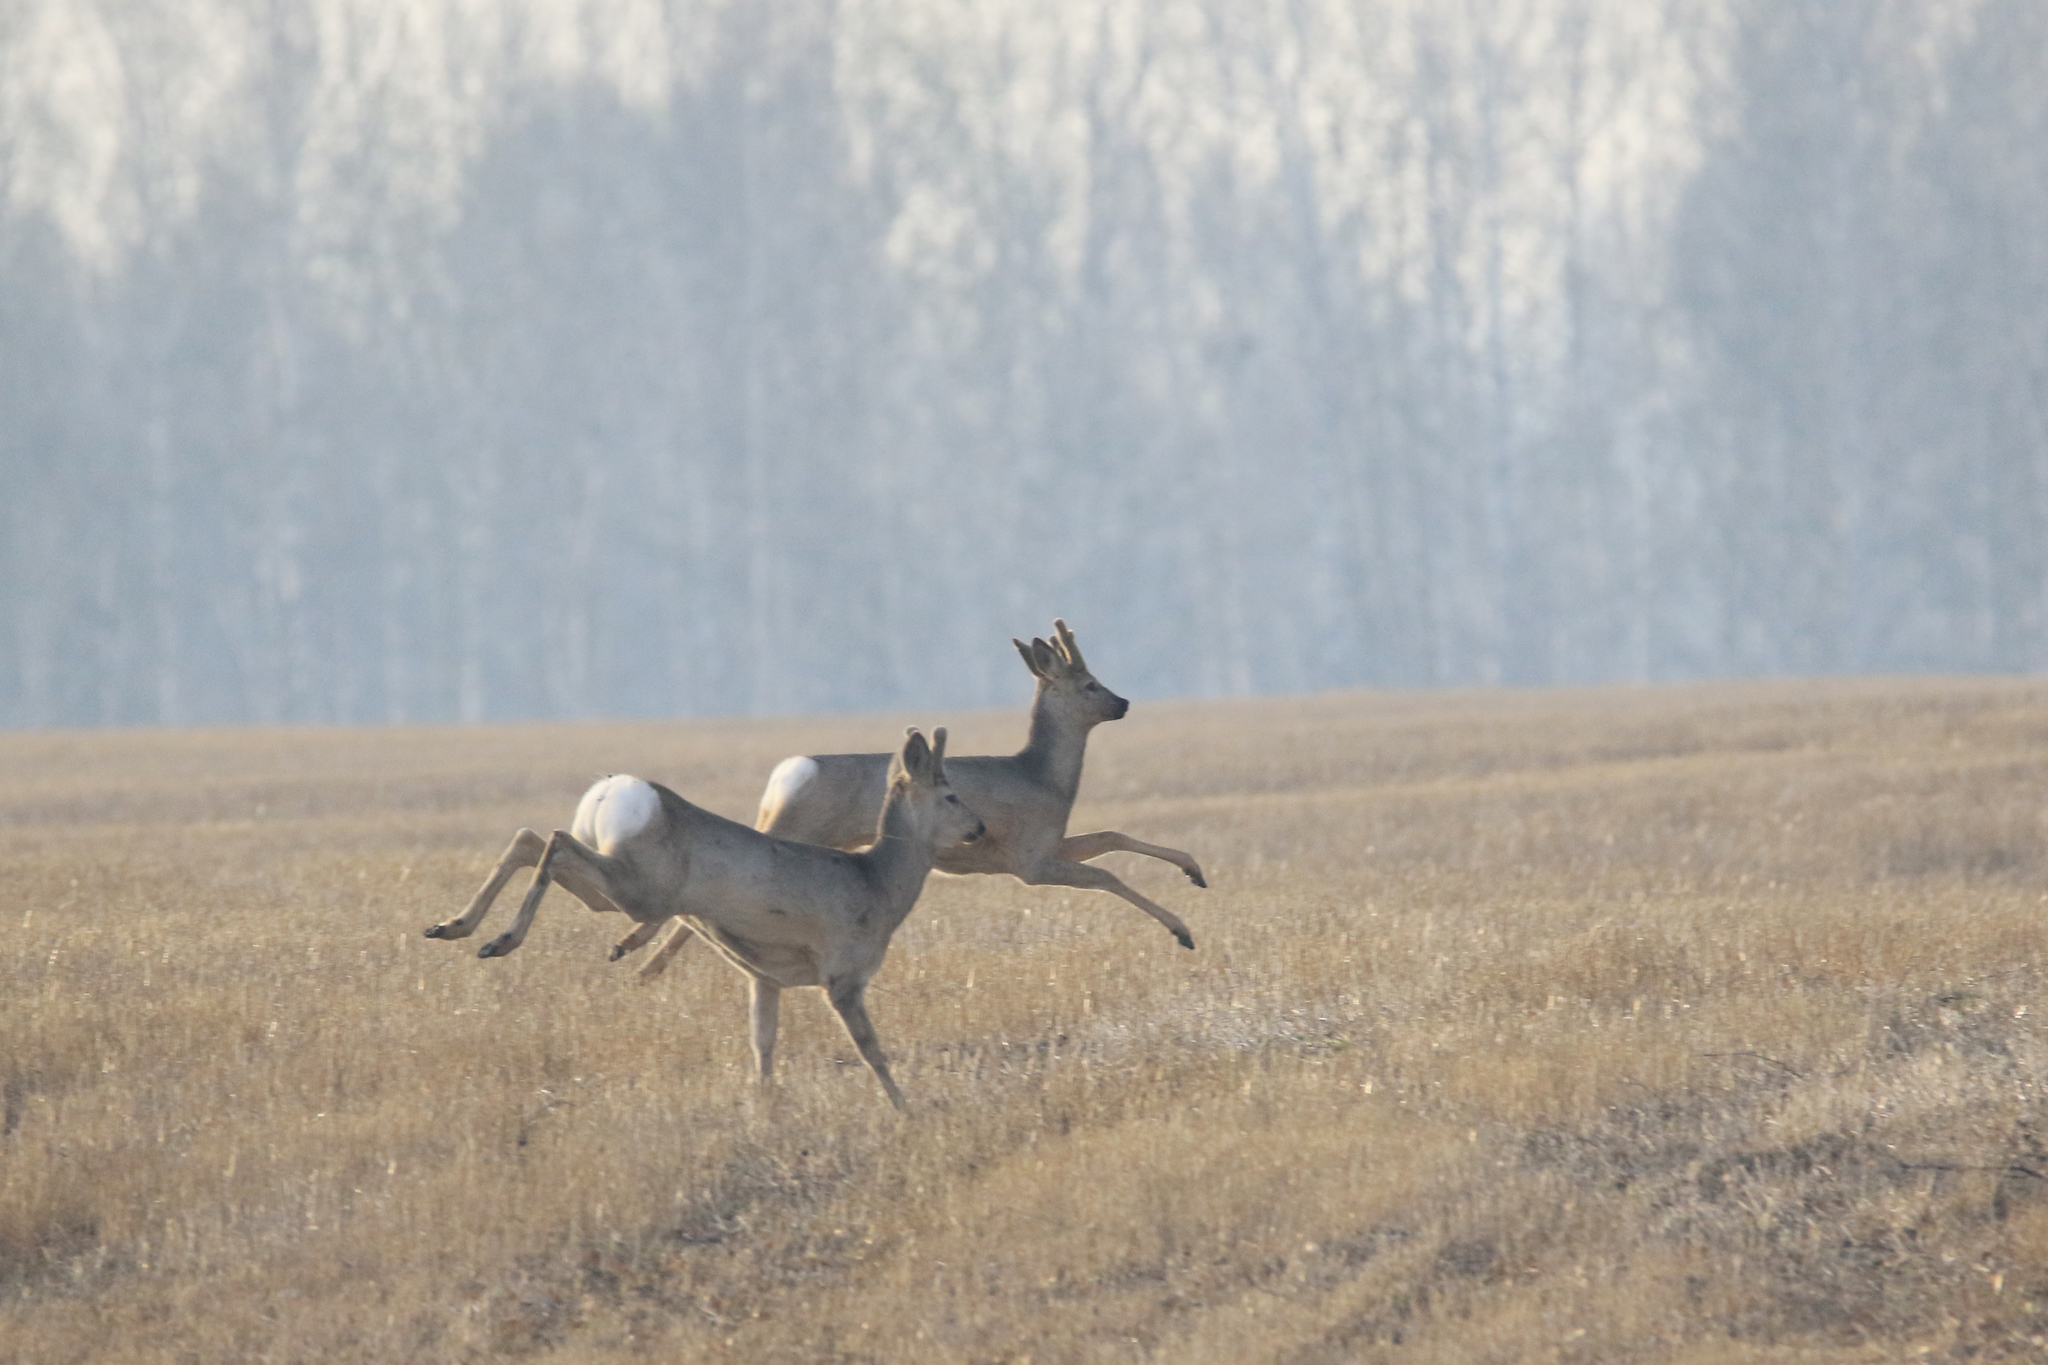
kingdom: Animalia
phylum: Chordata
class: Mammalia
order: Artiodactyla
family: Cervidae
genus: Capreolus
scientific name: Capreolus pygargus
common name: Siberian roe
